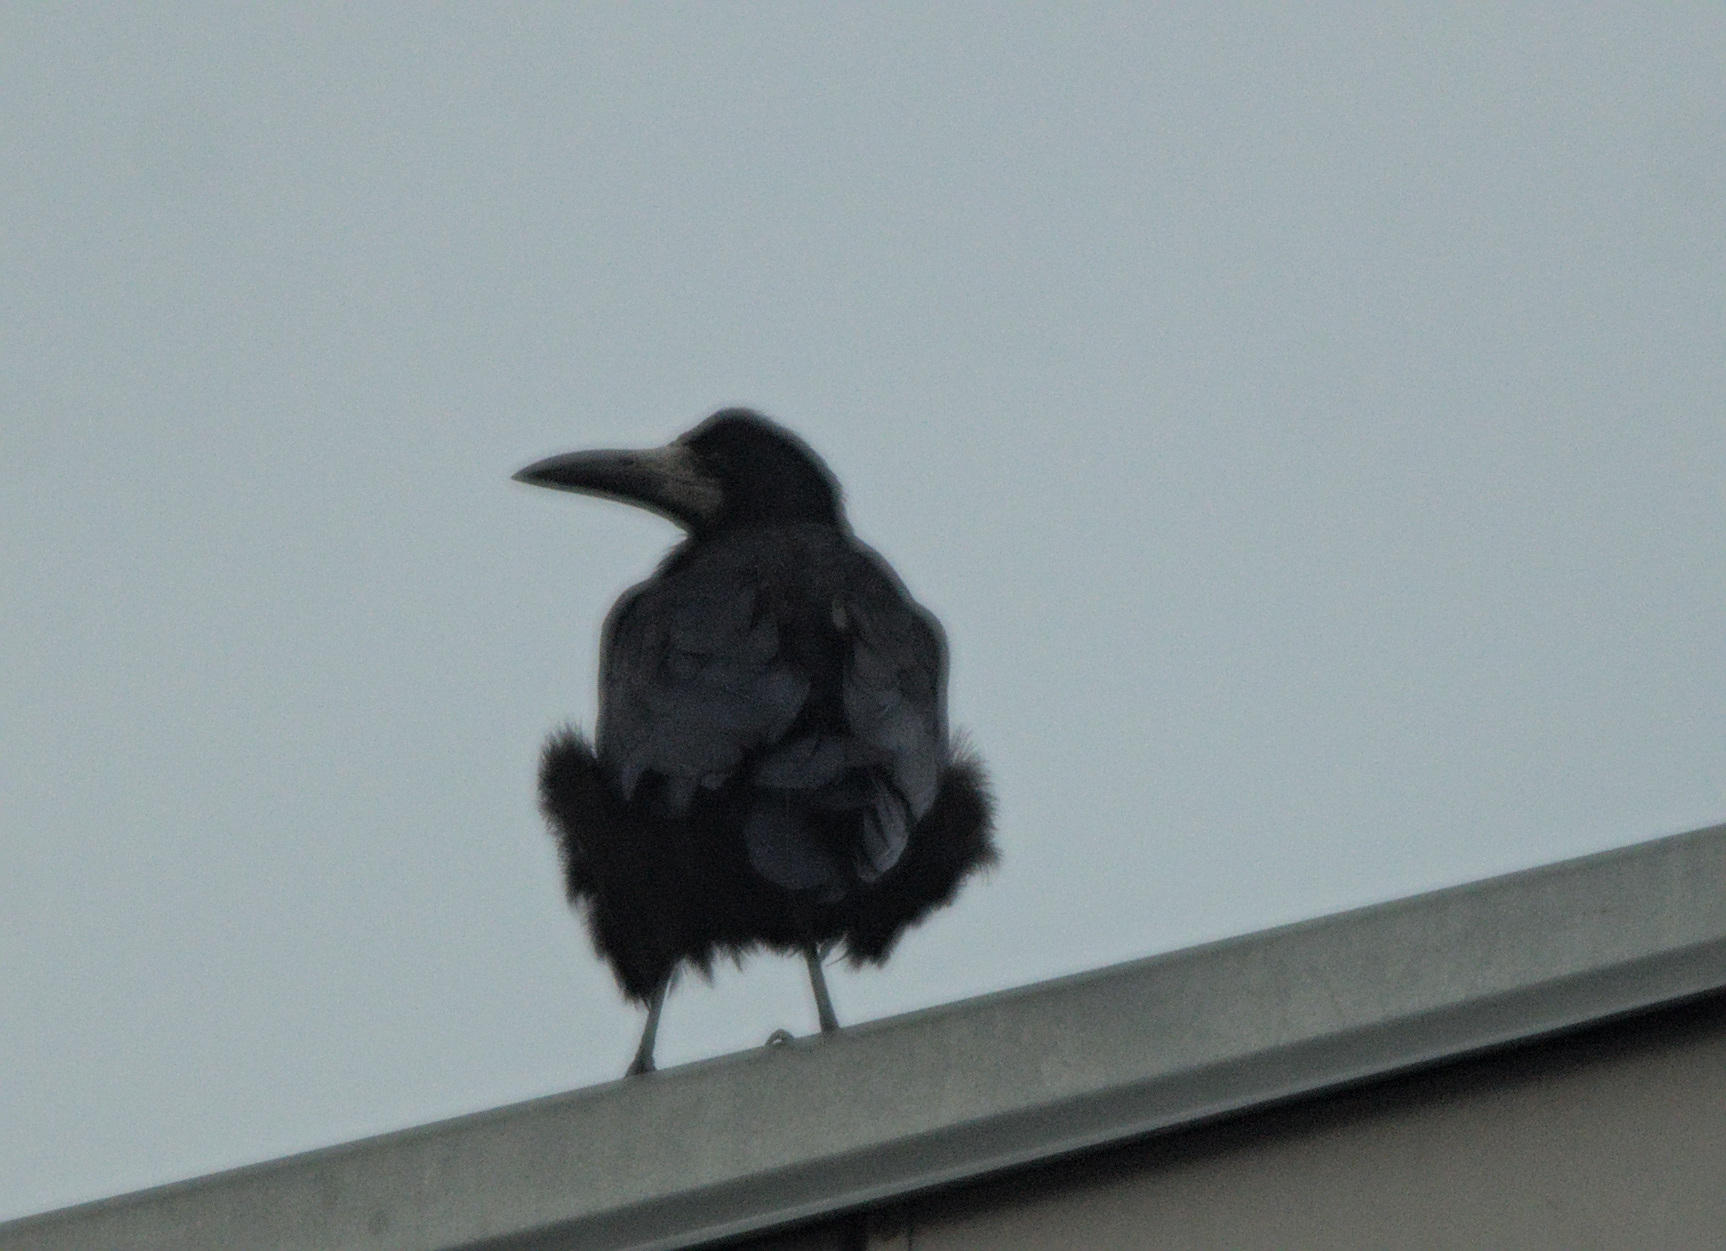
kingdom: Animalia
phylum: Chordata
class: Aves
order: Passeriformes
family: Corvidae
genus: Corvus
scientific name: Corvus frugilegus
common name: Rook
